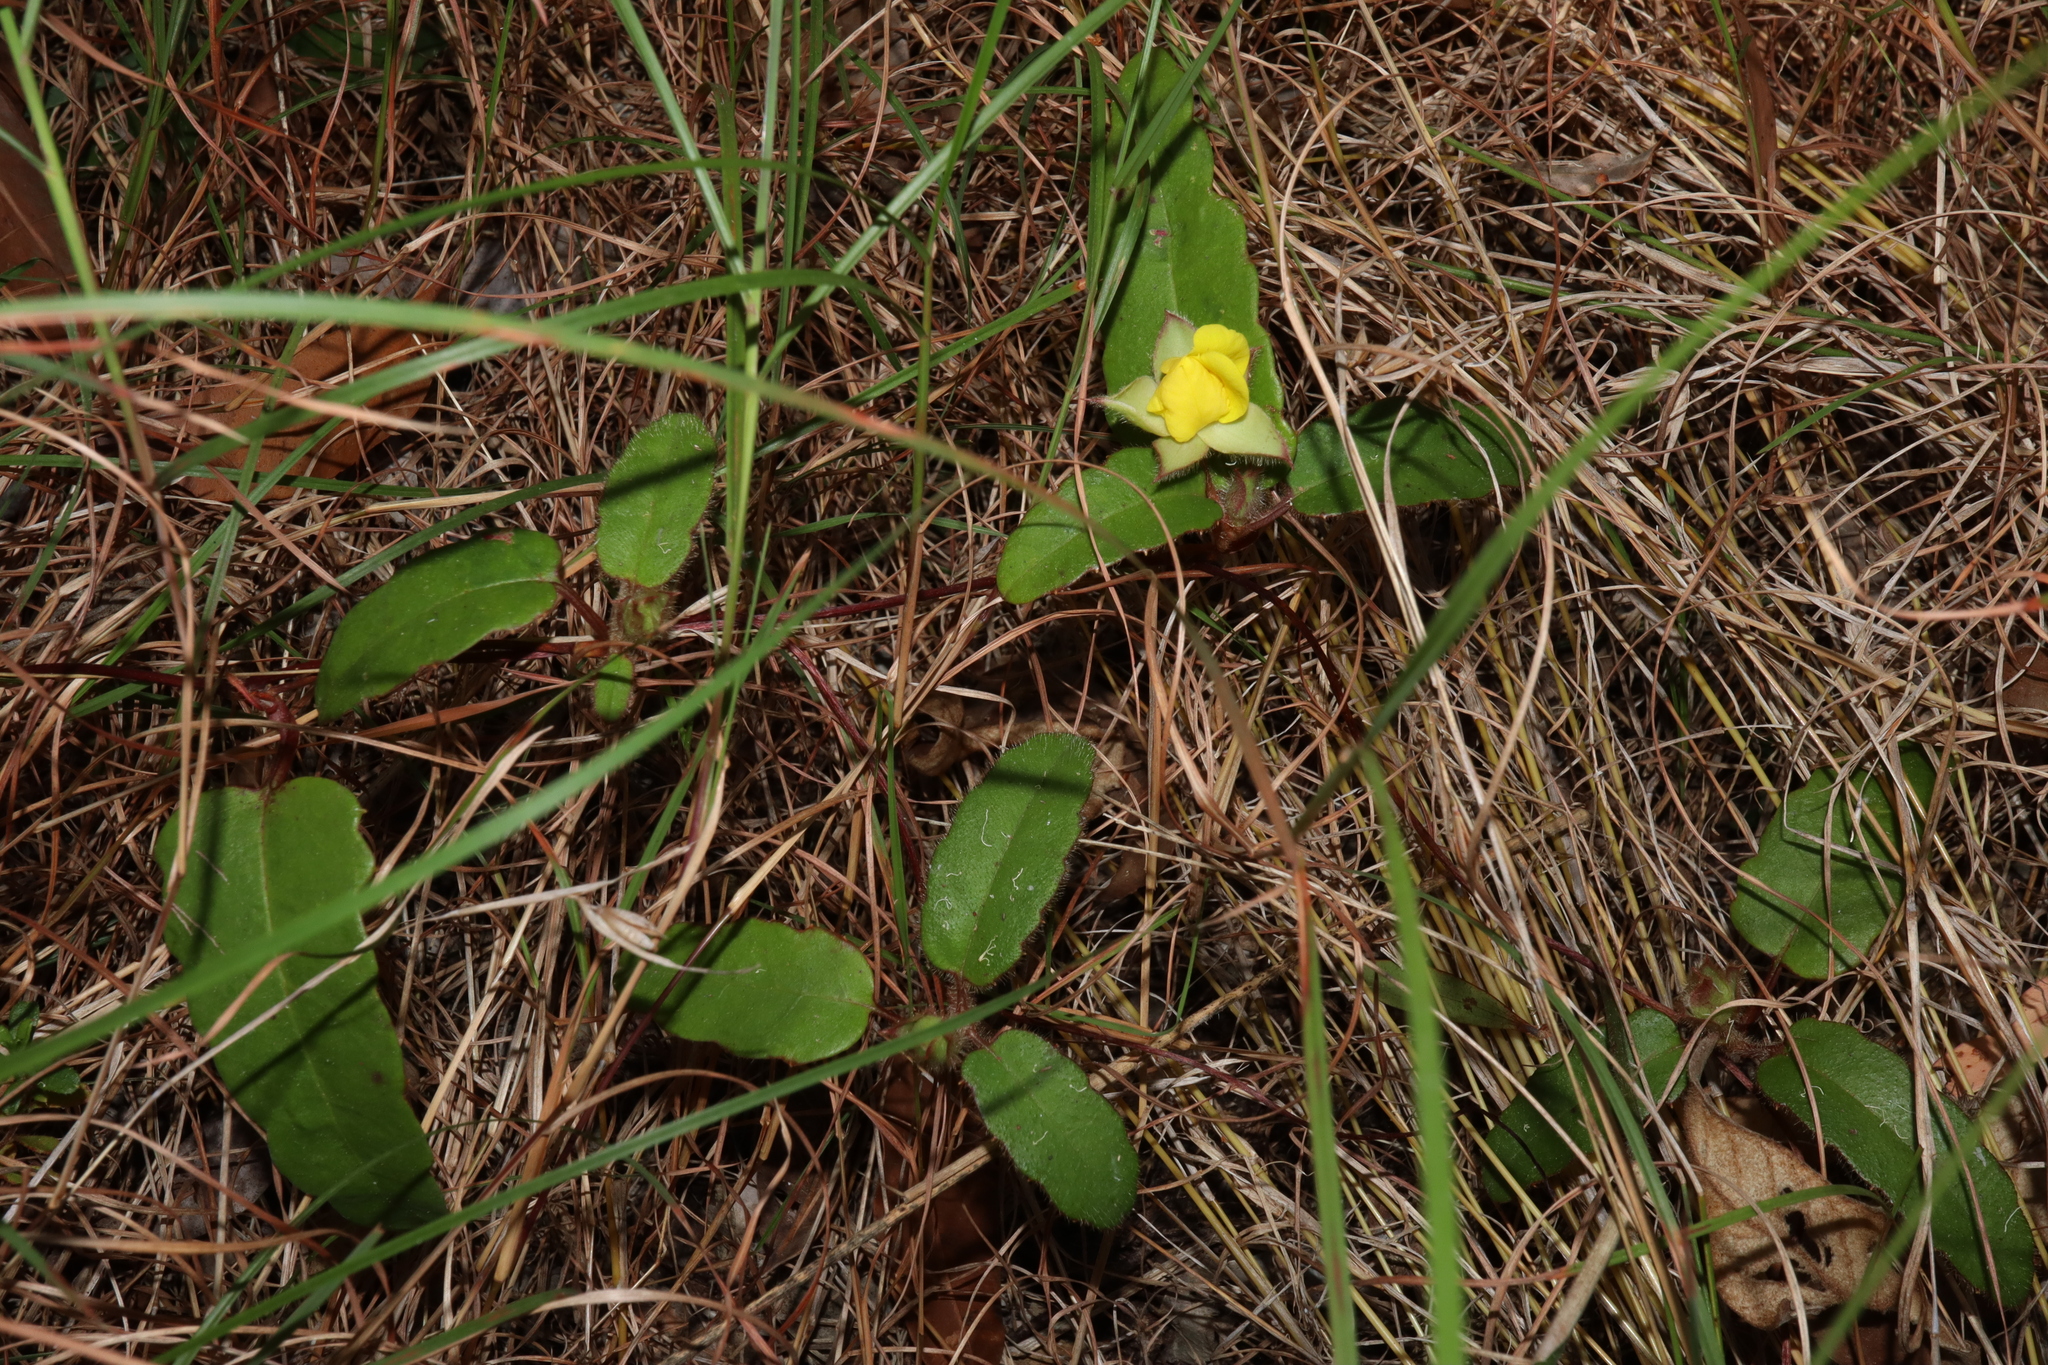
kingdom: Plantae
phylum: Tracheophyta
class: Magnoliopsida
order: Dilleniales
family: Dilleniaceae
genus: Hibbertia
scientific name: Hibbertia dentata
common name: Trailing guinea-flower
